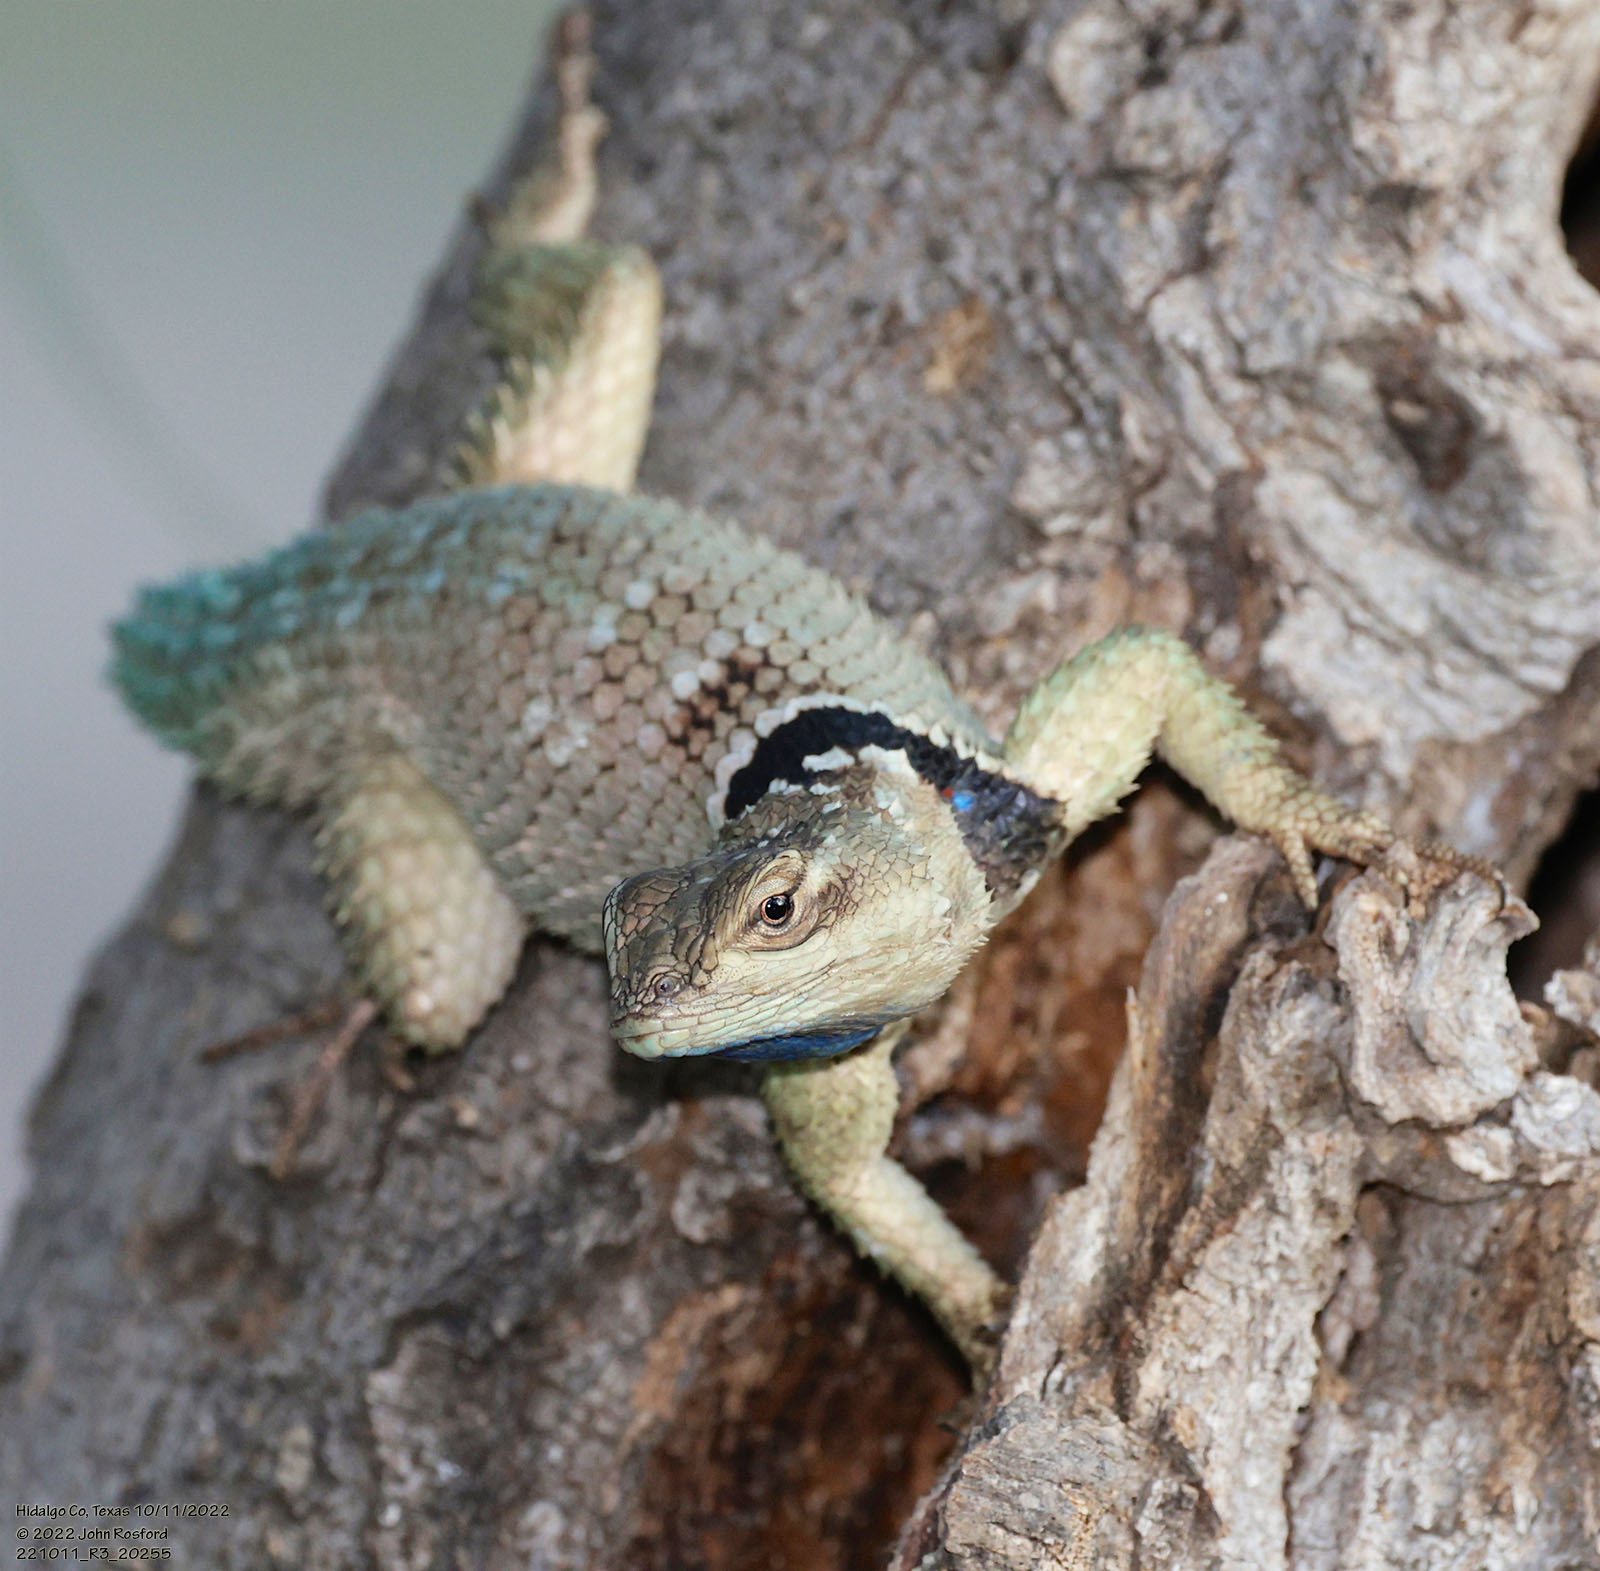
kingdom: Animalia
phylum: Chordata
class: Squamata
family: Phrynosomatidae
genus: Sceloporus
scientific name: Sceloporus cyanogenys
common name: Blue spiny lizard
